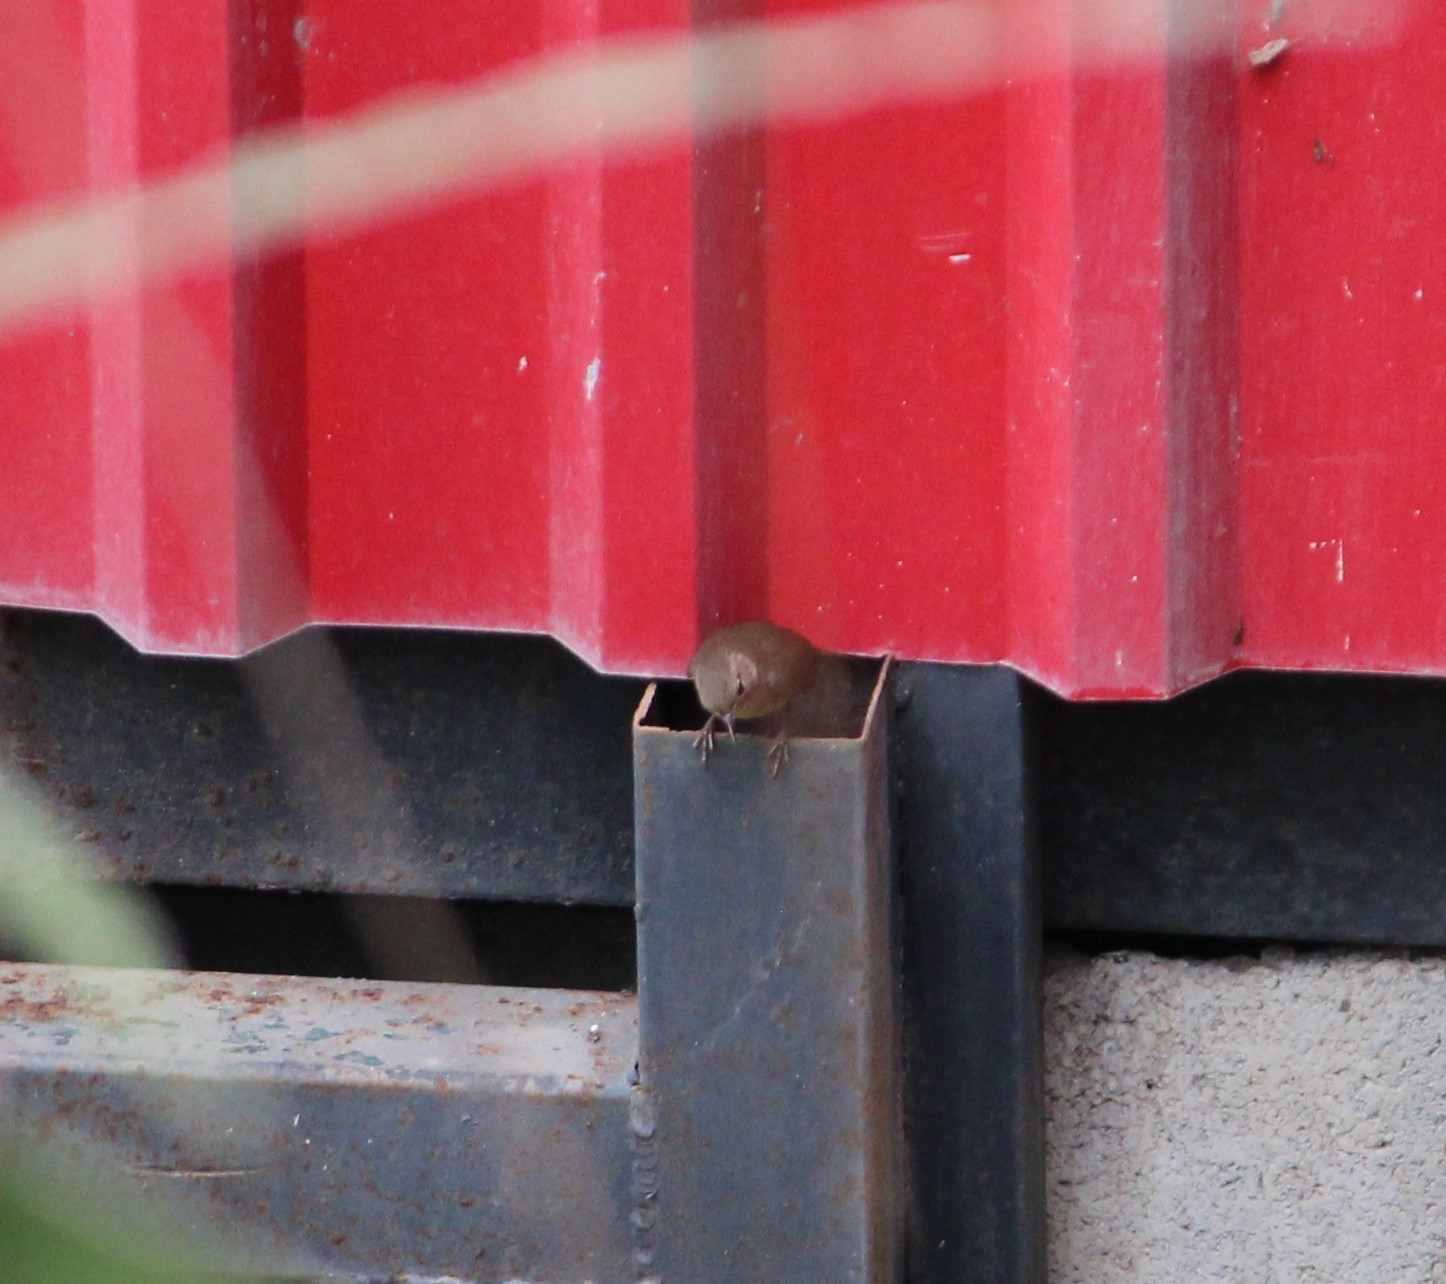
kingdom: Animalia
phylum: Chordata
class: Aves
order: Passeriformes
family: Troglodytidae
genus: Troglodytes
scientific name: Troglodytes aedon
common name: House wren
